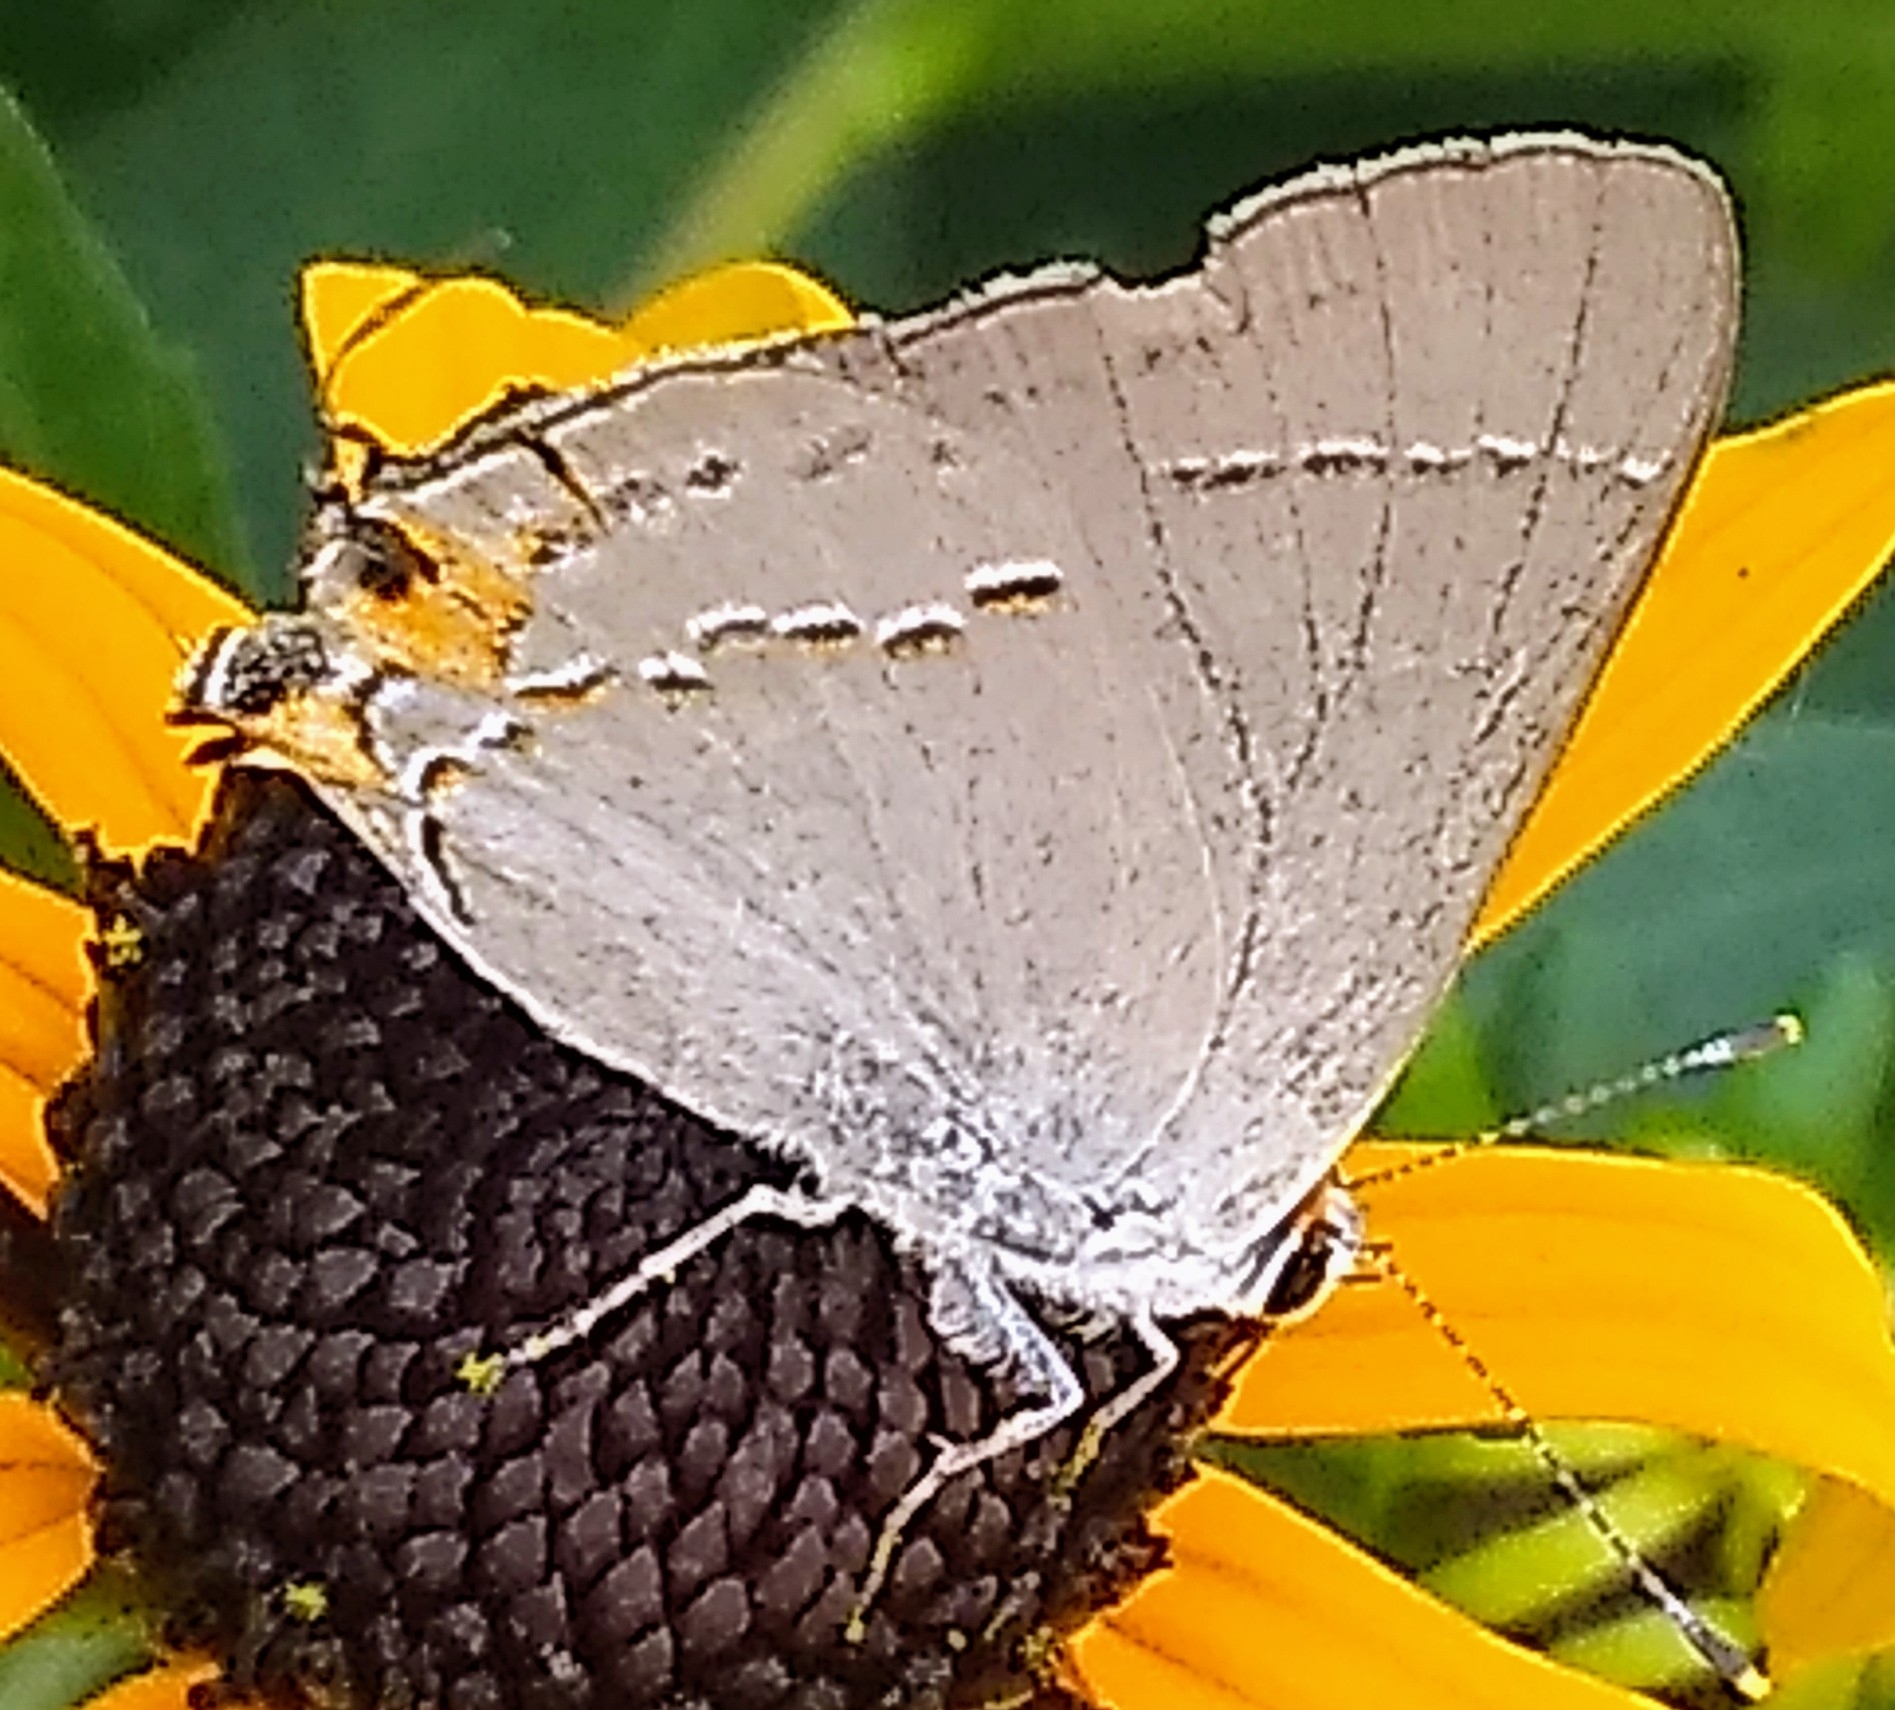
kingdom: Animalia
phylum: Arthropoda
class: Insecta
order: Lepidoptera
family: Lycaenidae
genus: Strymon
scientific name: Strymon melinus
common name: Gray hairstreak
